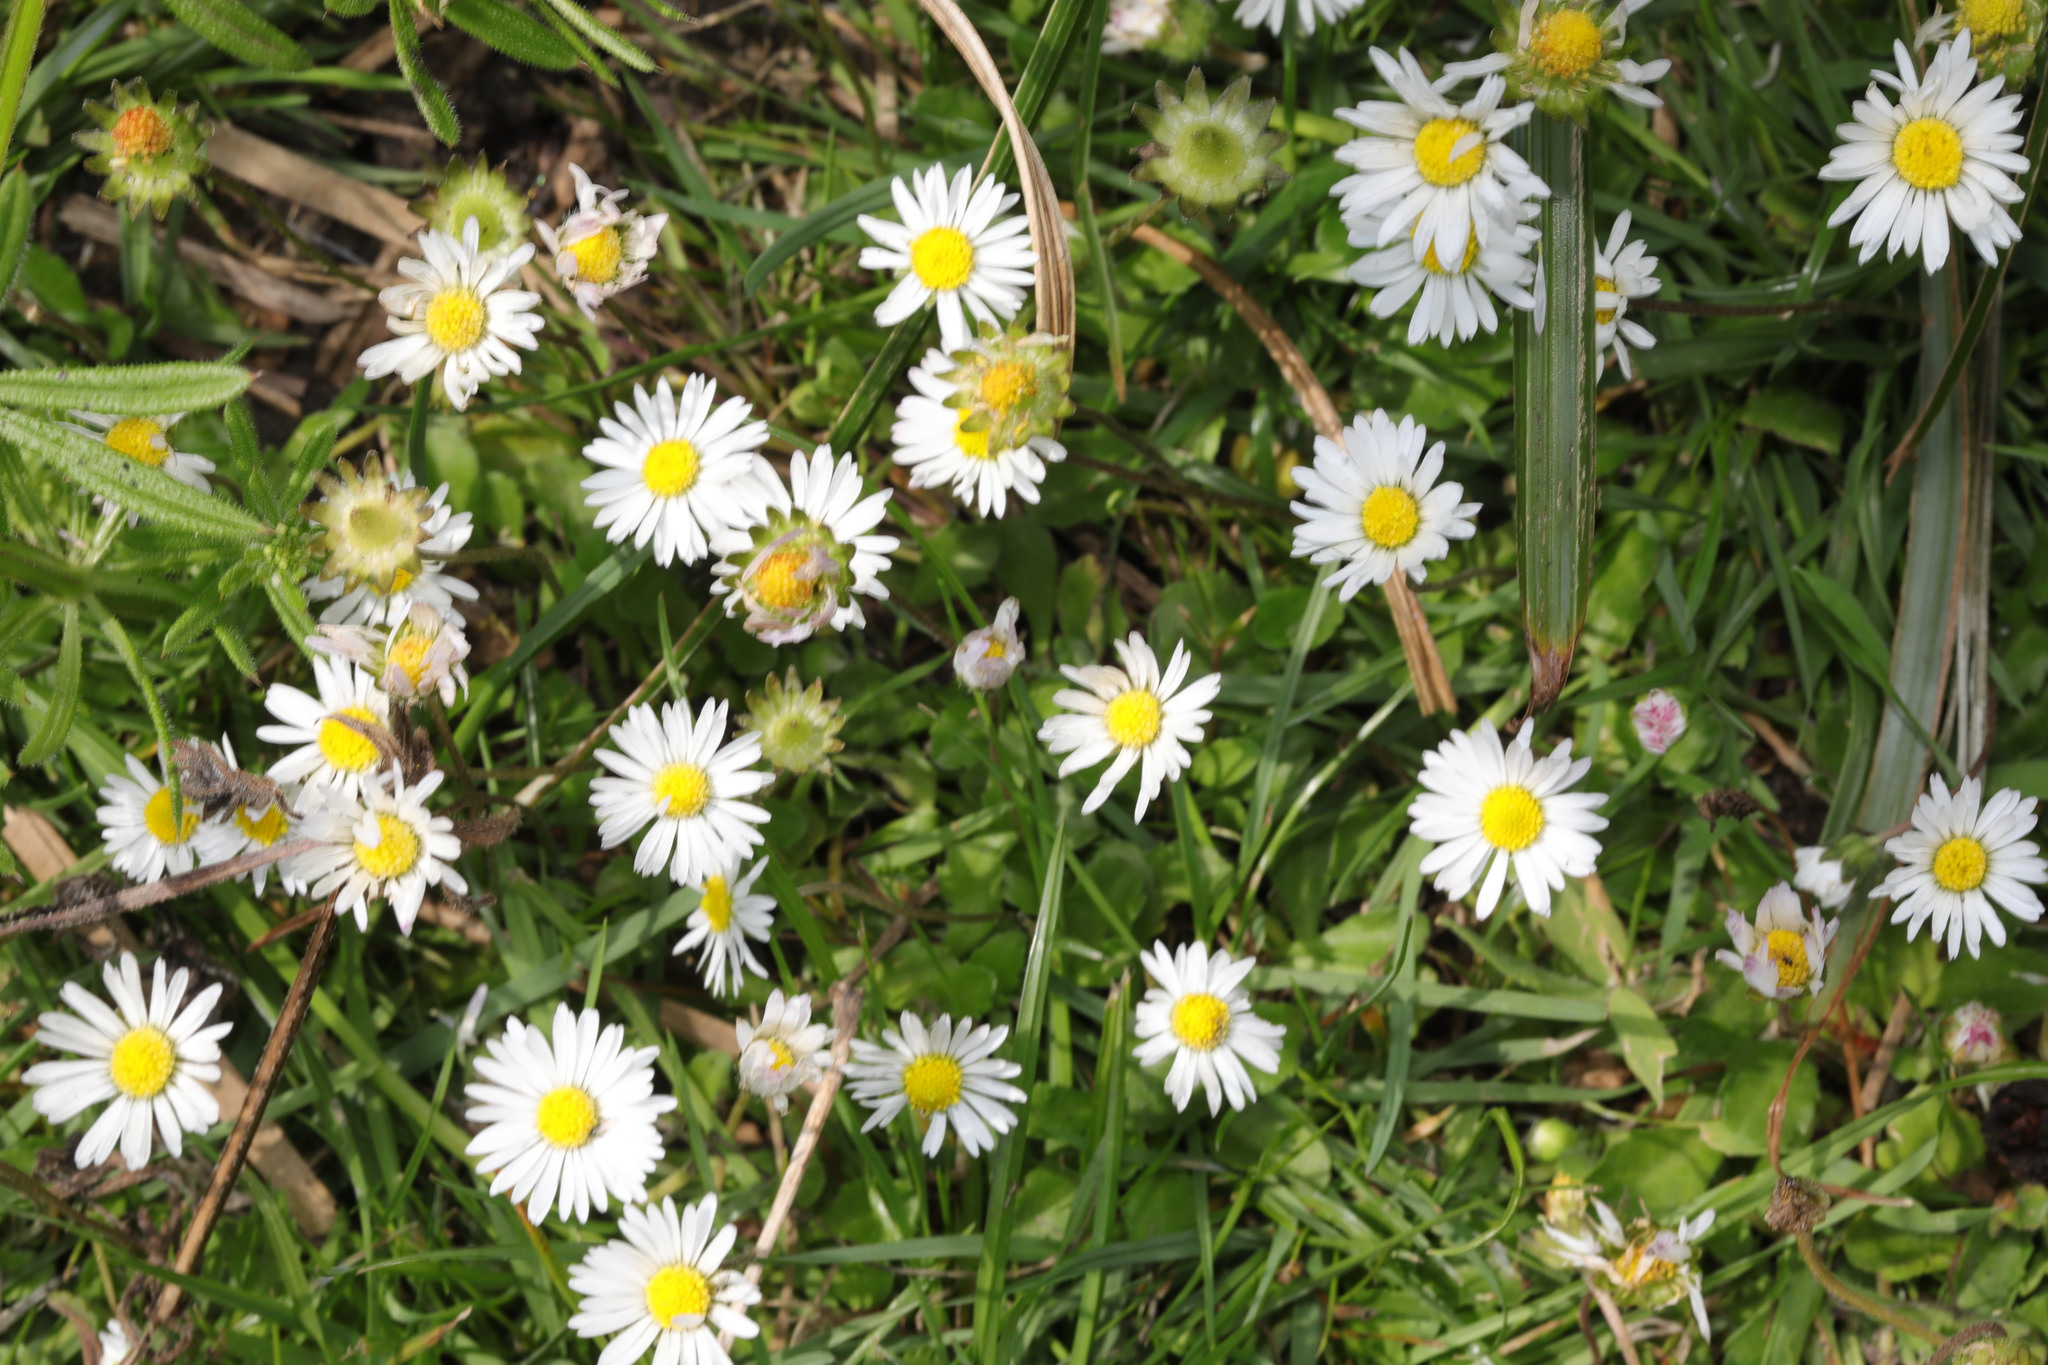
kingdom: Plantae
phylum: Tracheophyta
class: Magnoliopsida
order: Asterales
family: Asteraceae
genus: Bellis
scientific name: Bellis perennis
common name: Lawndaisy
